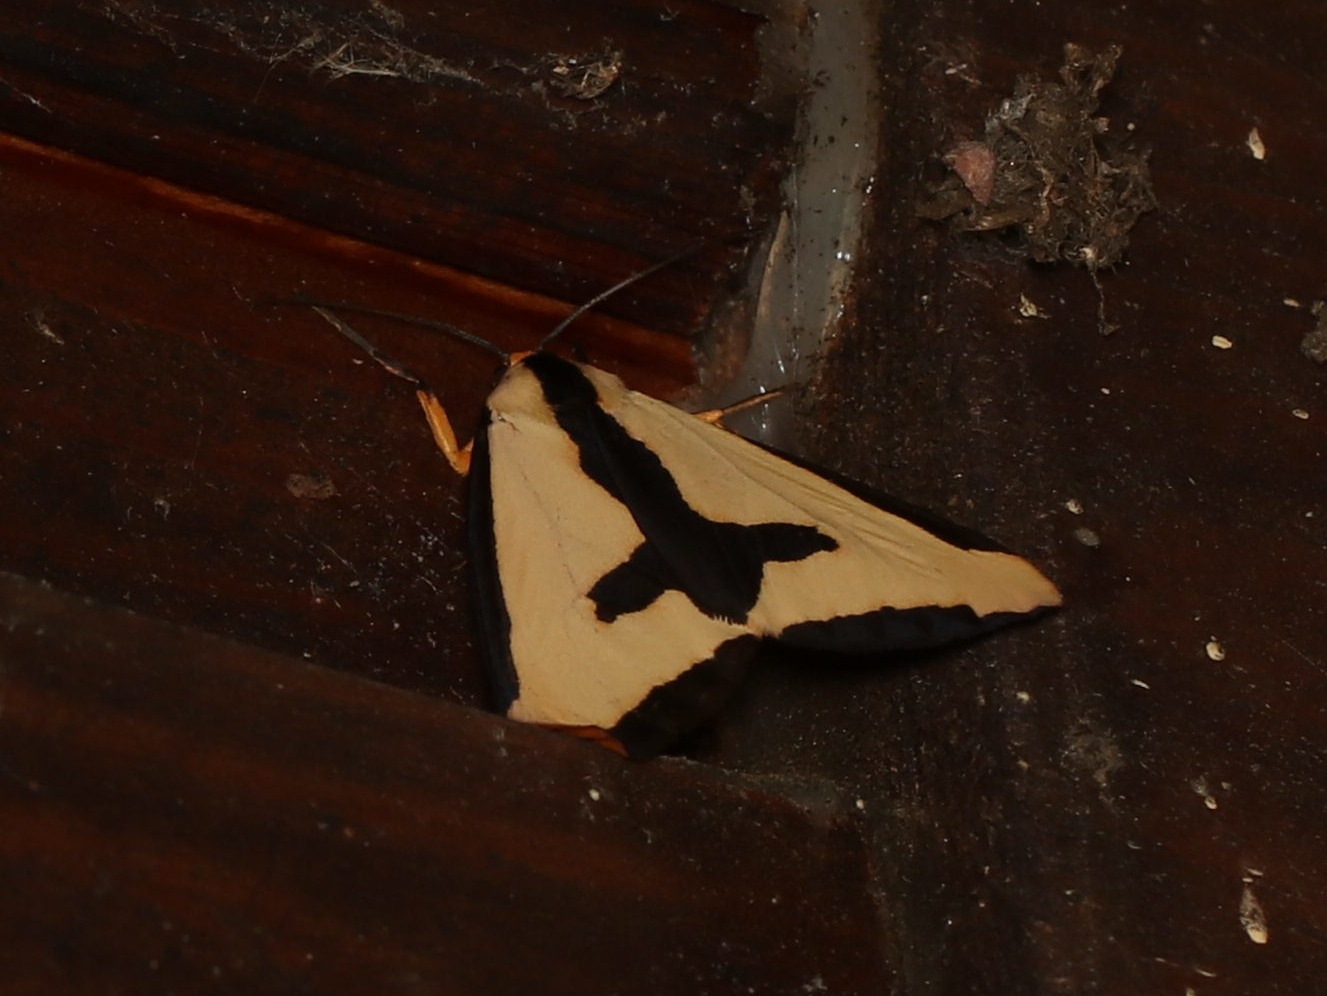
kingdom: Animalia
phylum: Arthropoda
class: Insecta
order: Lepidoptera
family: Erebidae
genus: Haploa
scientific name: Haploa clymene
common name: Clymene moth
